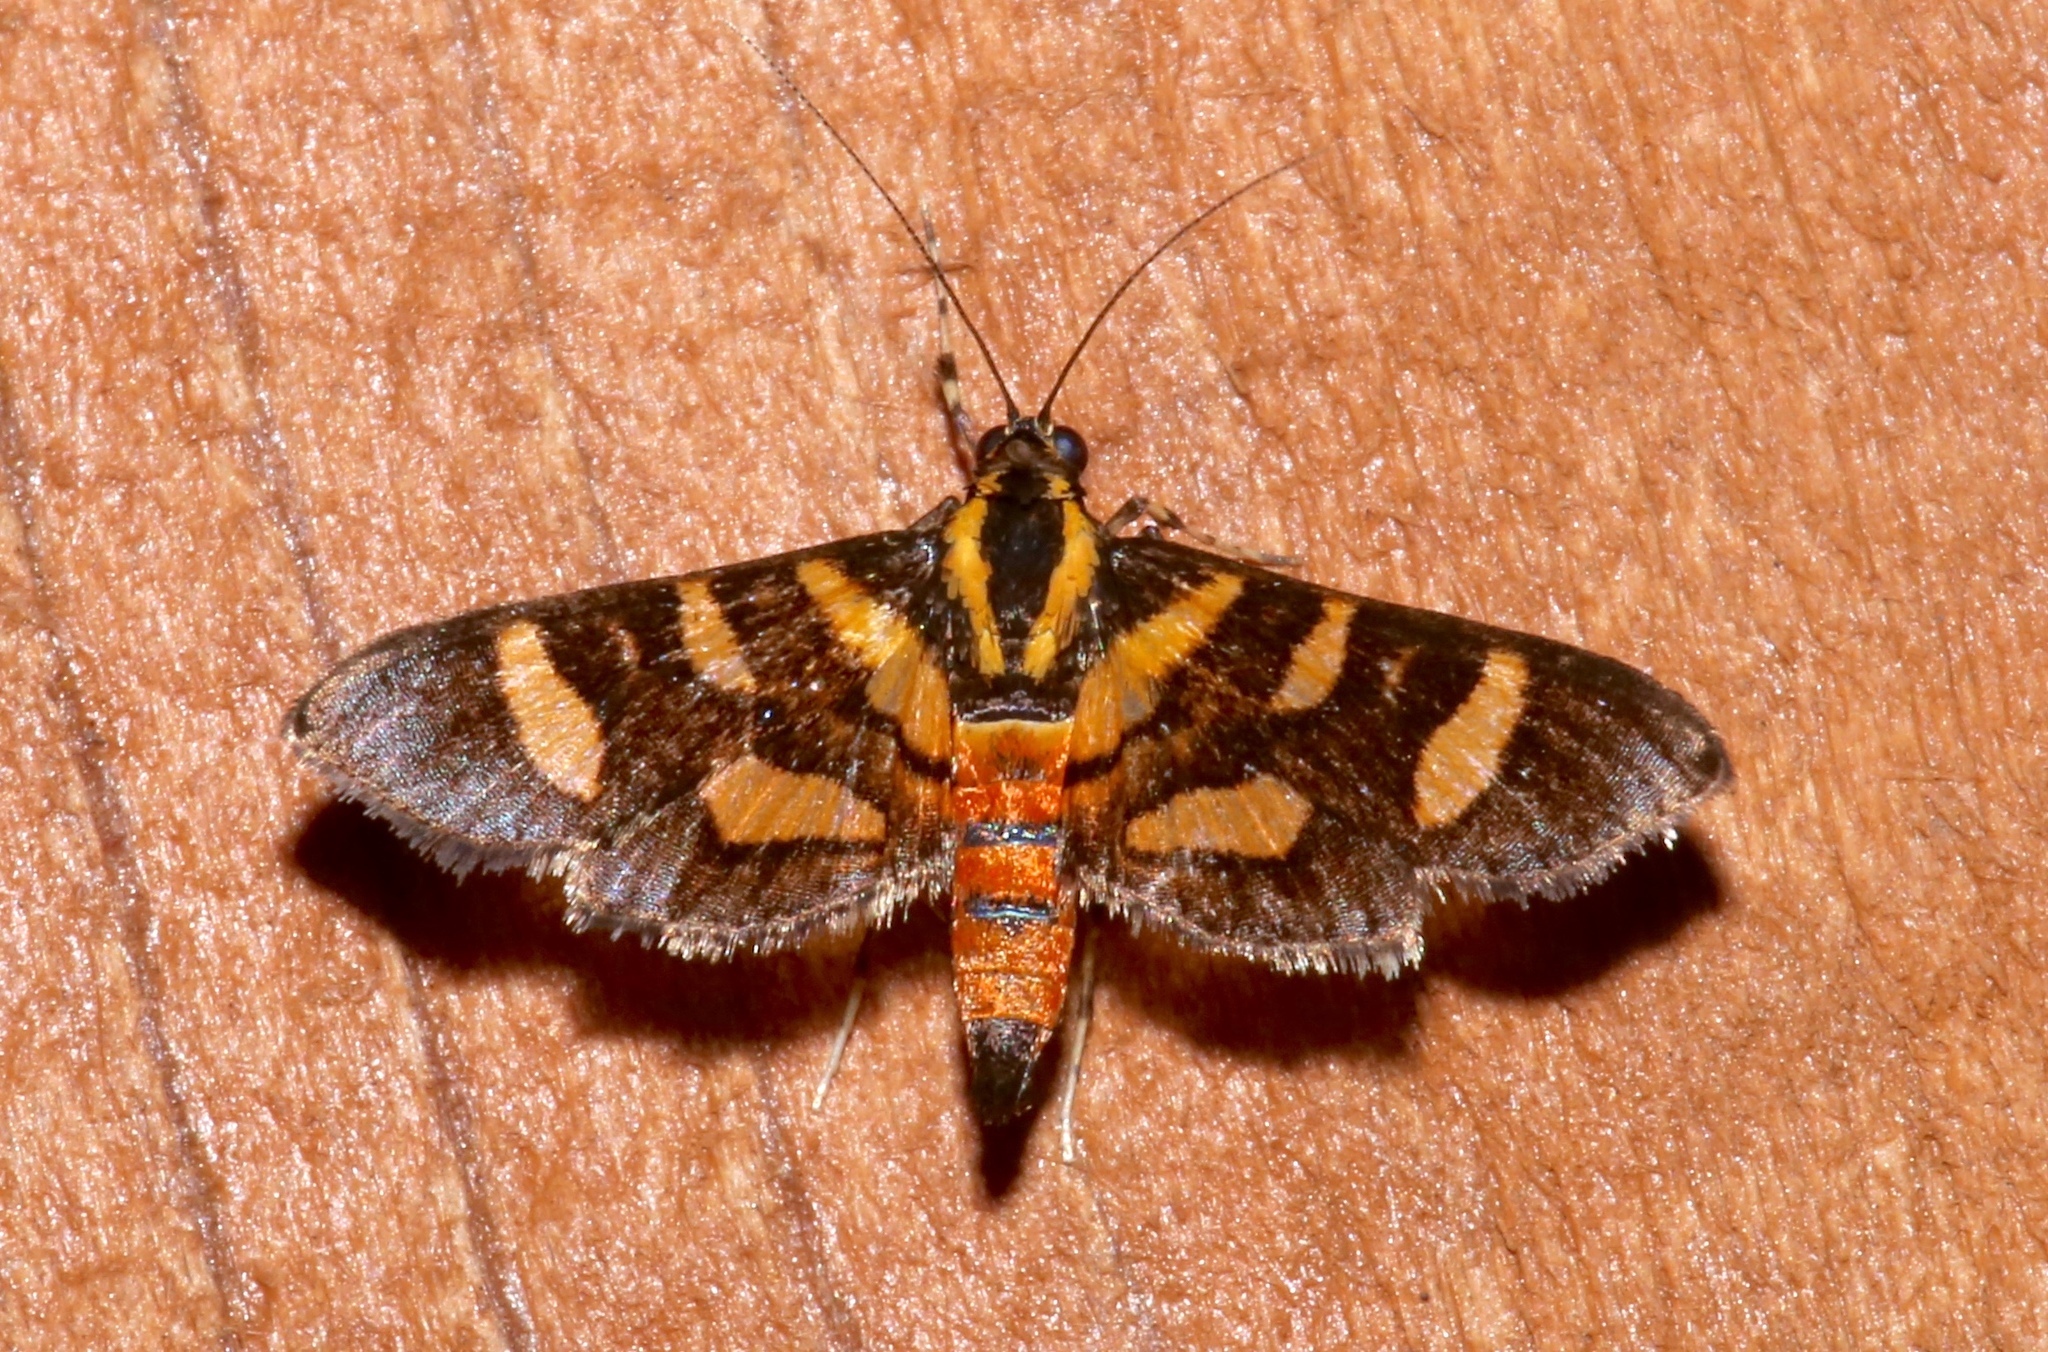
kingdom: Animalia
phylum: Arthropoda
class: Insecta
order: Lepidoptera
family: Crambidae
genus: Syngamia
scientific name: Syngamia florella
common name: Orange-spotted flower moth
